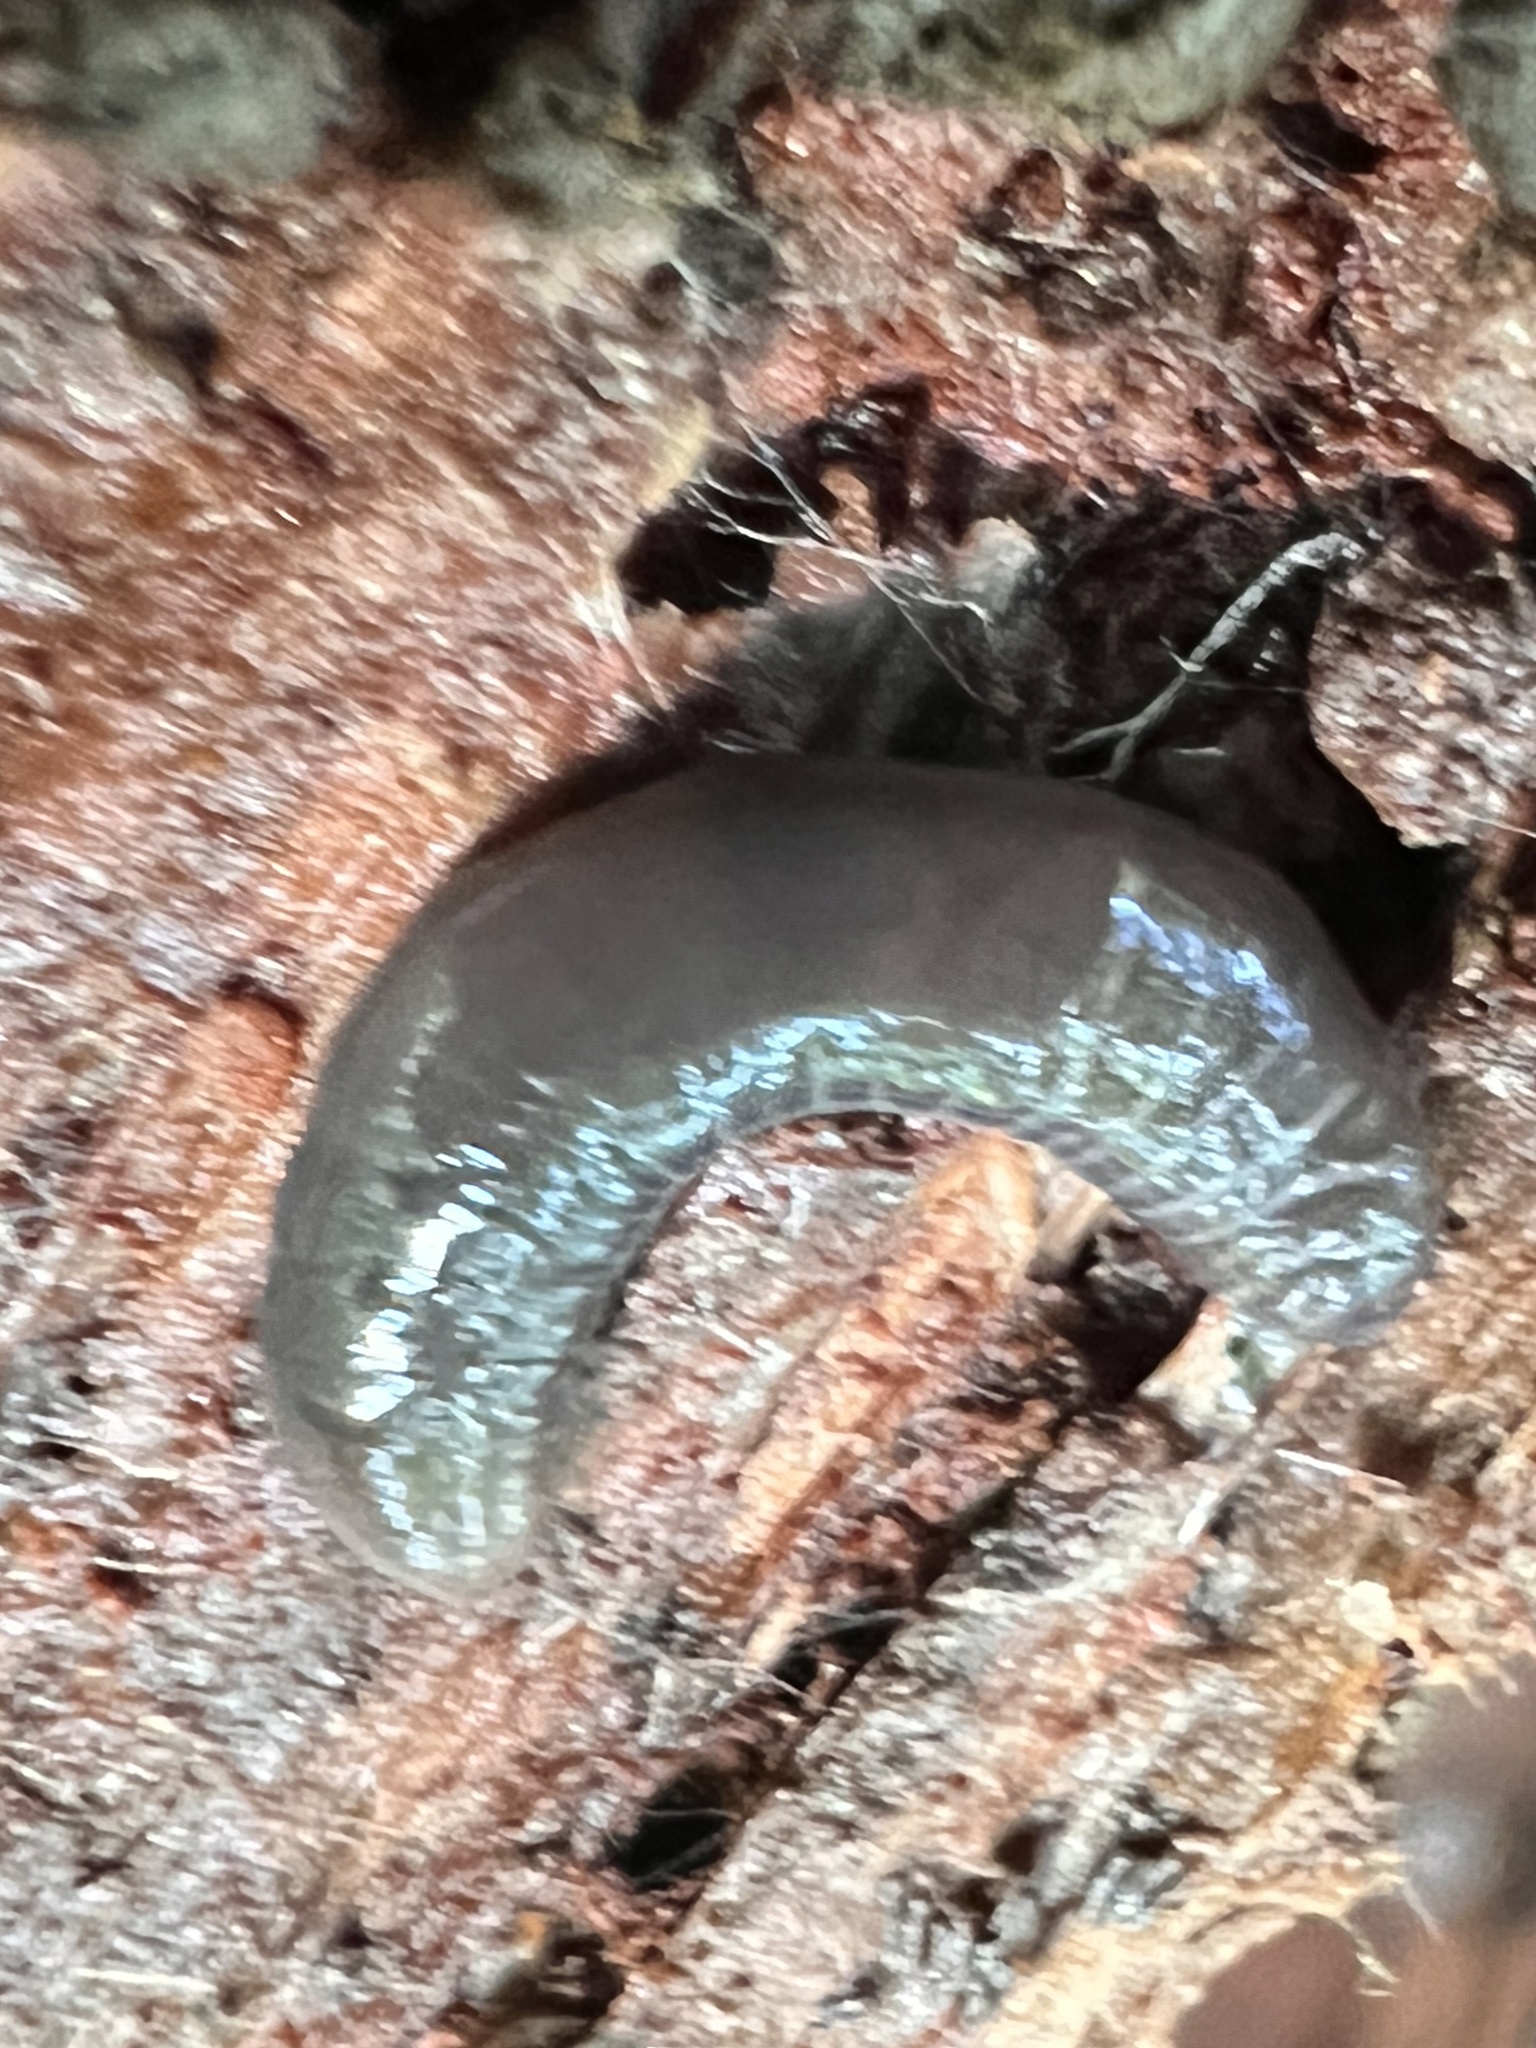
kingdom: Animalia
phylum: Platyhelminthes
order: Tricladida
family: Geoplanidae
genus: Microplana
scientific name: Microplana terrestris
